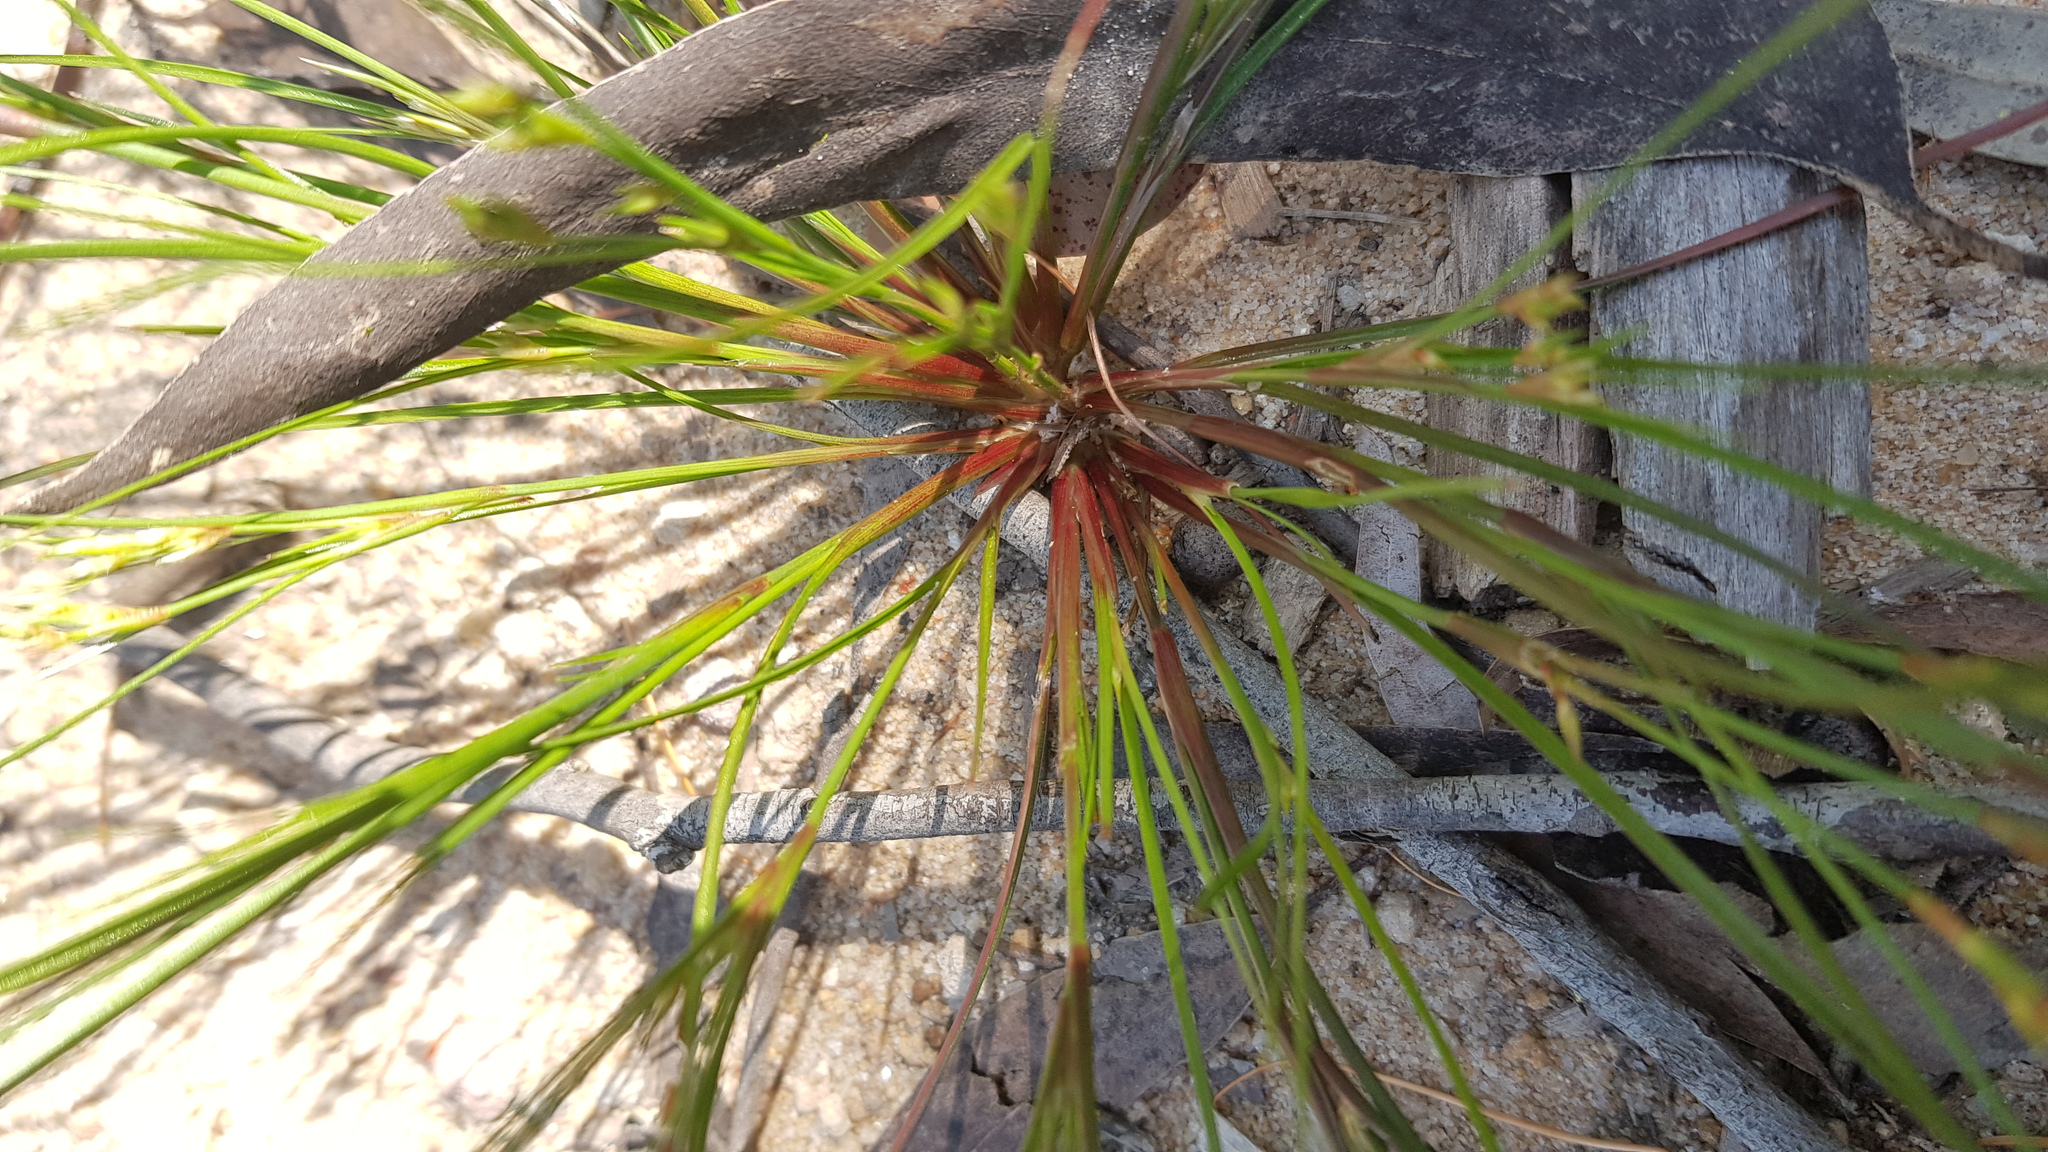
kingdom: Plantae
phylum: Tracheophyta
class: Liliopsida
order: Poales
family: Juncaceae
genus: Juncus
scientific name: Juncus bufonius
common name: Toad rush
